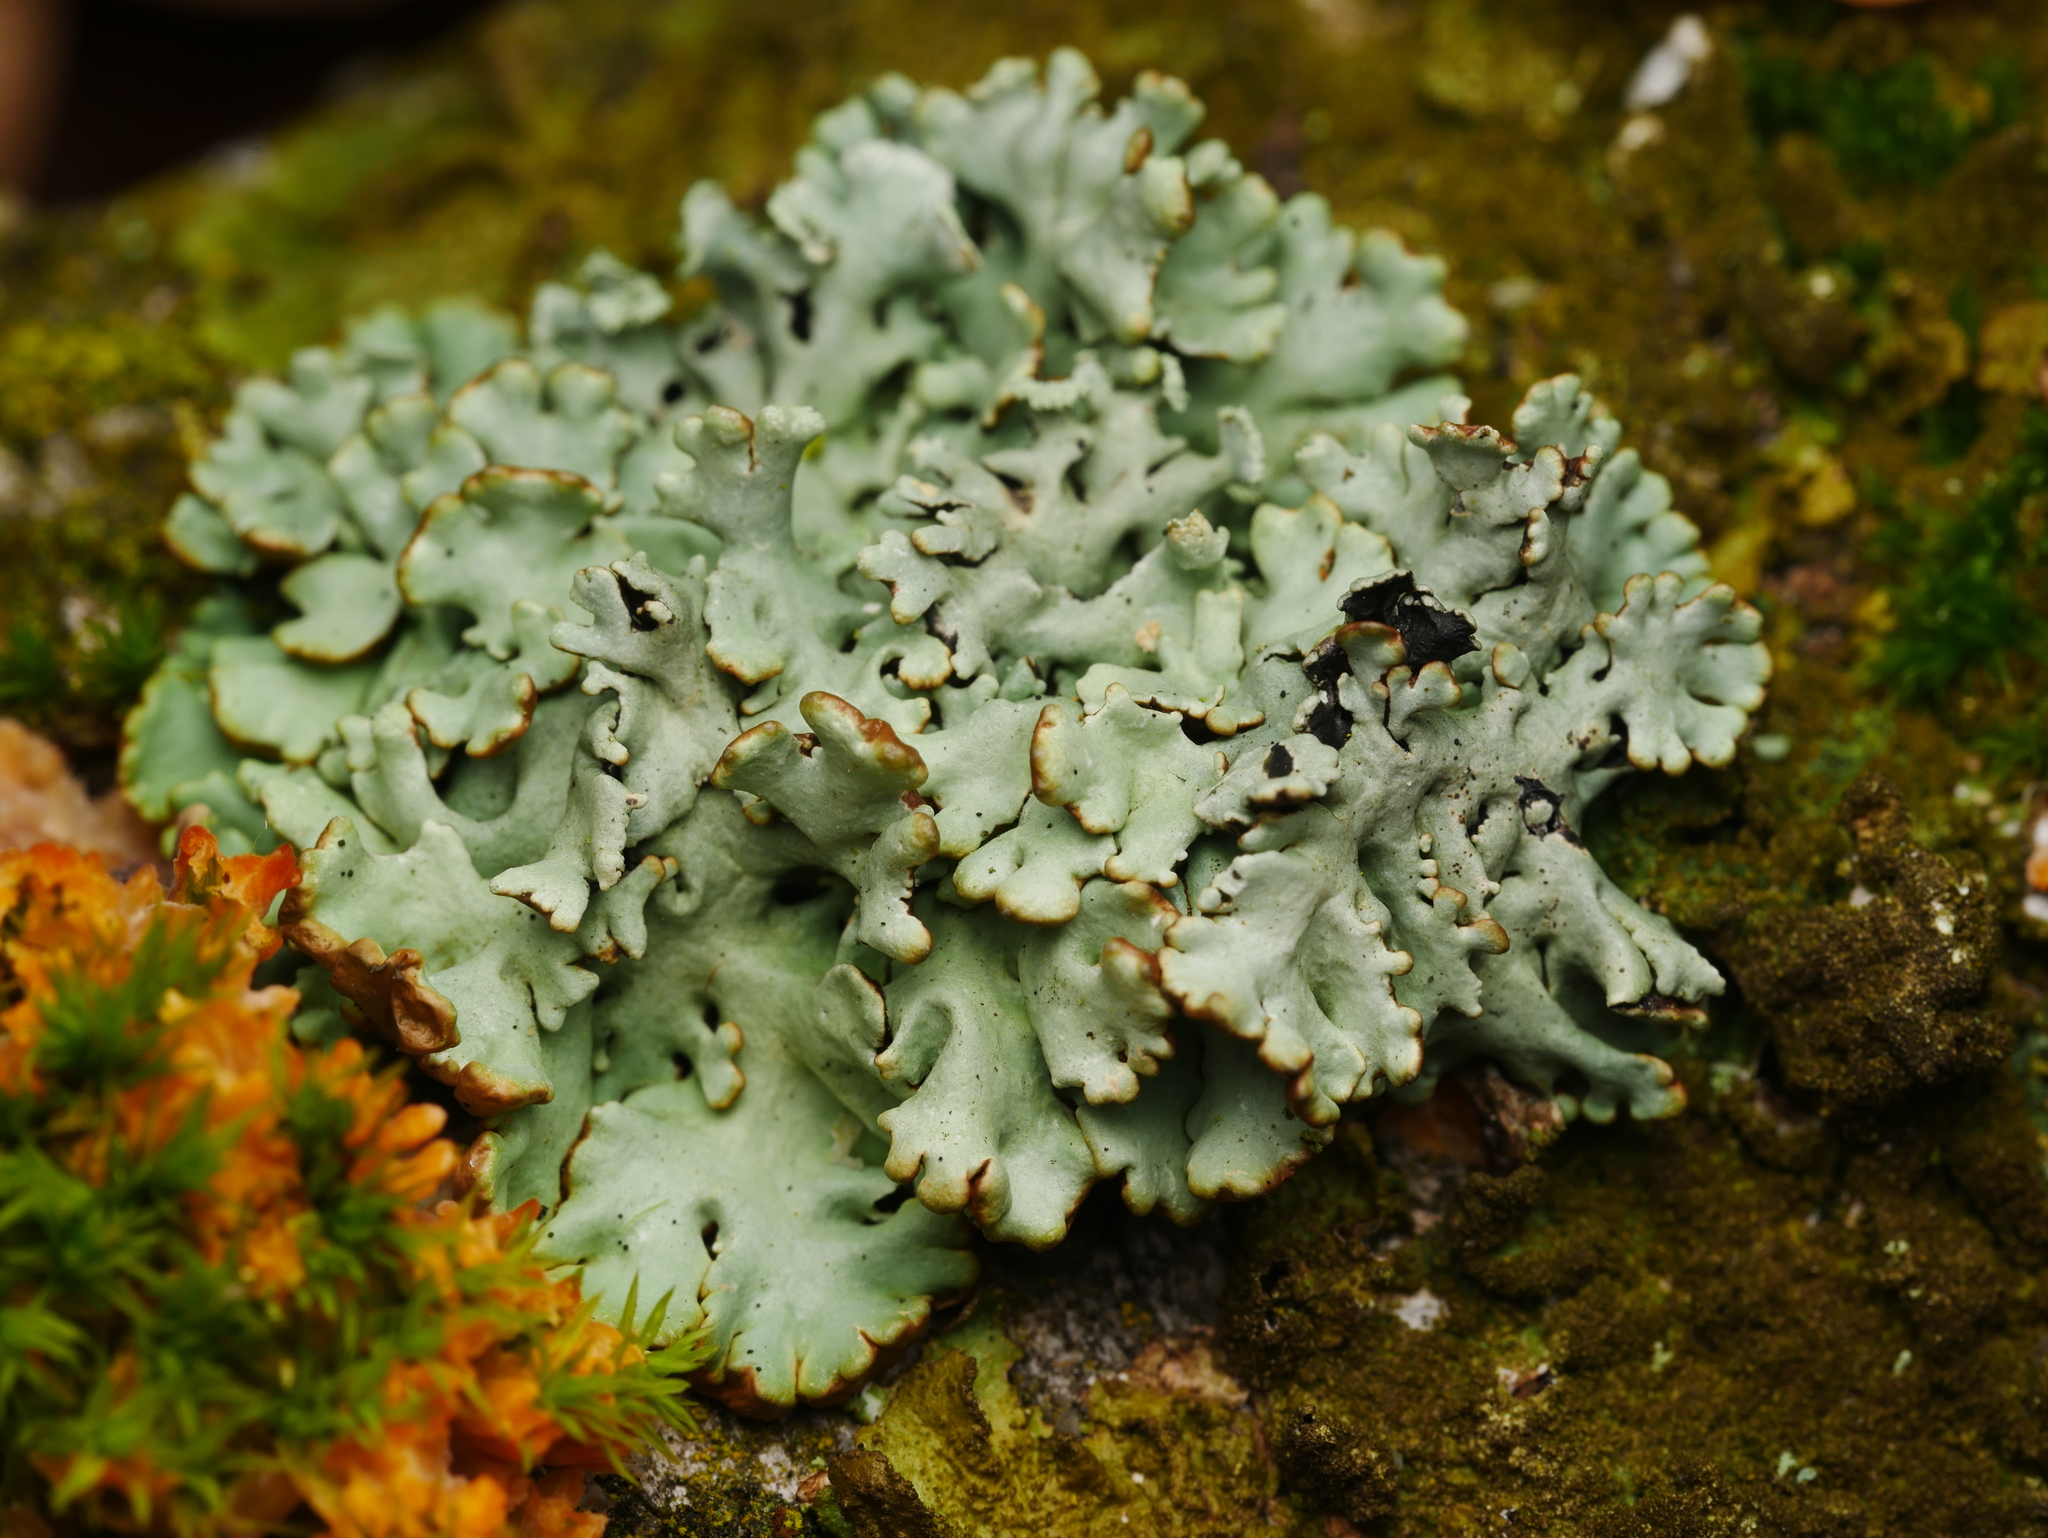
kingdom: Fungi
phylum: Ascomycota
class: Lecanoromycetes
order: Lecanorales
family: Parmeliaceae
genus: Hypogymnia
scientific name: Hypogymnia physodes
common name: Dark crottle
